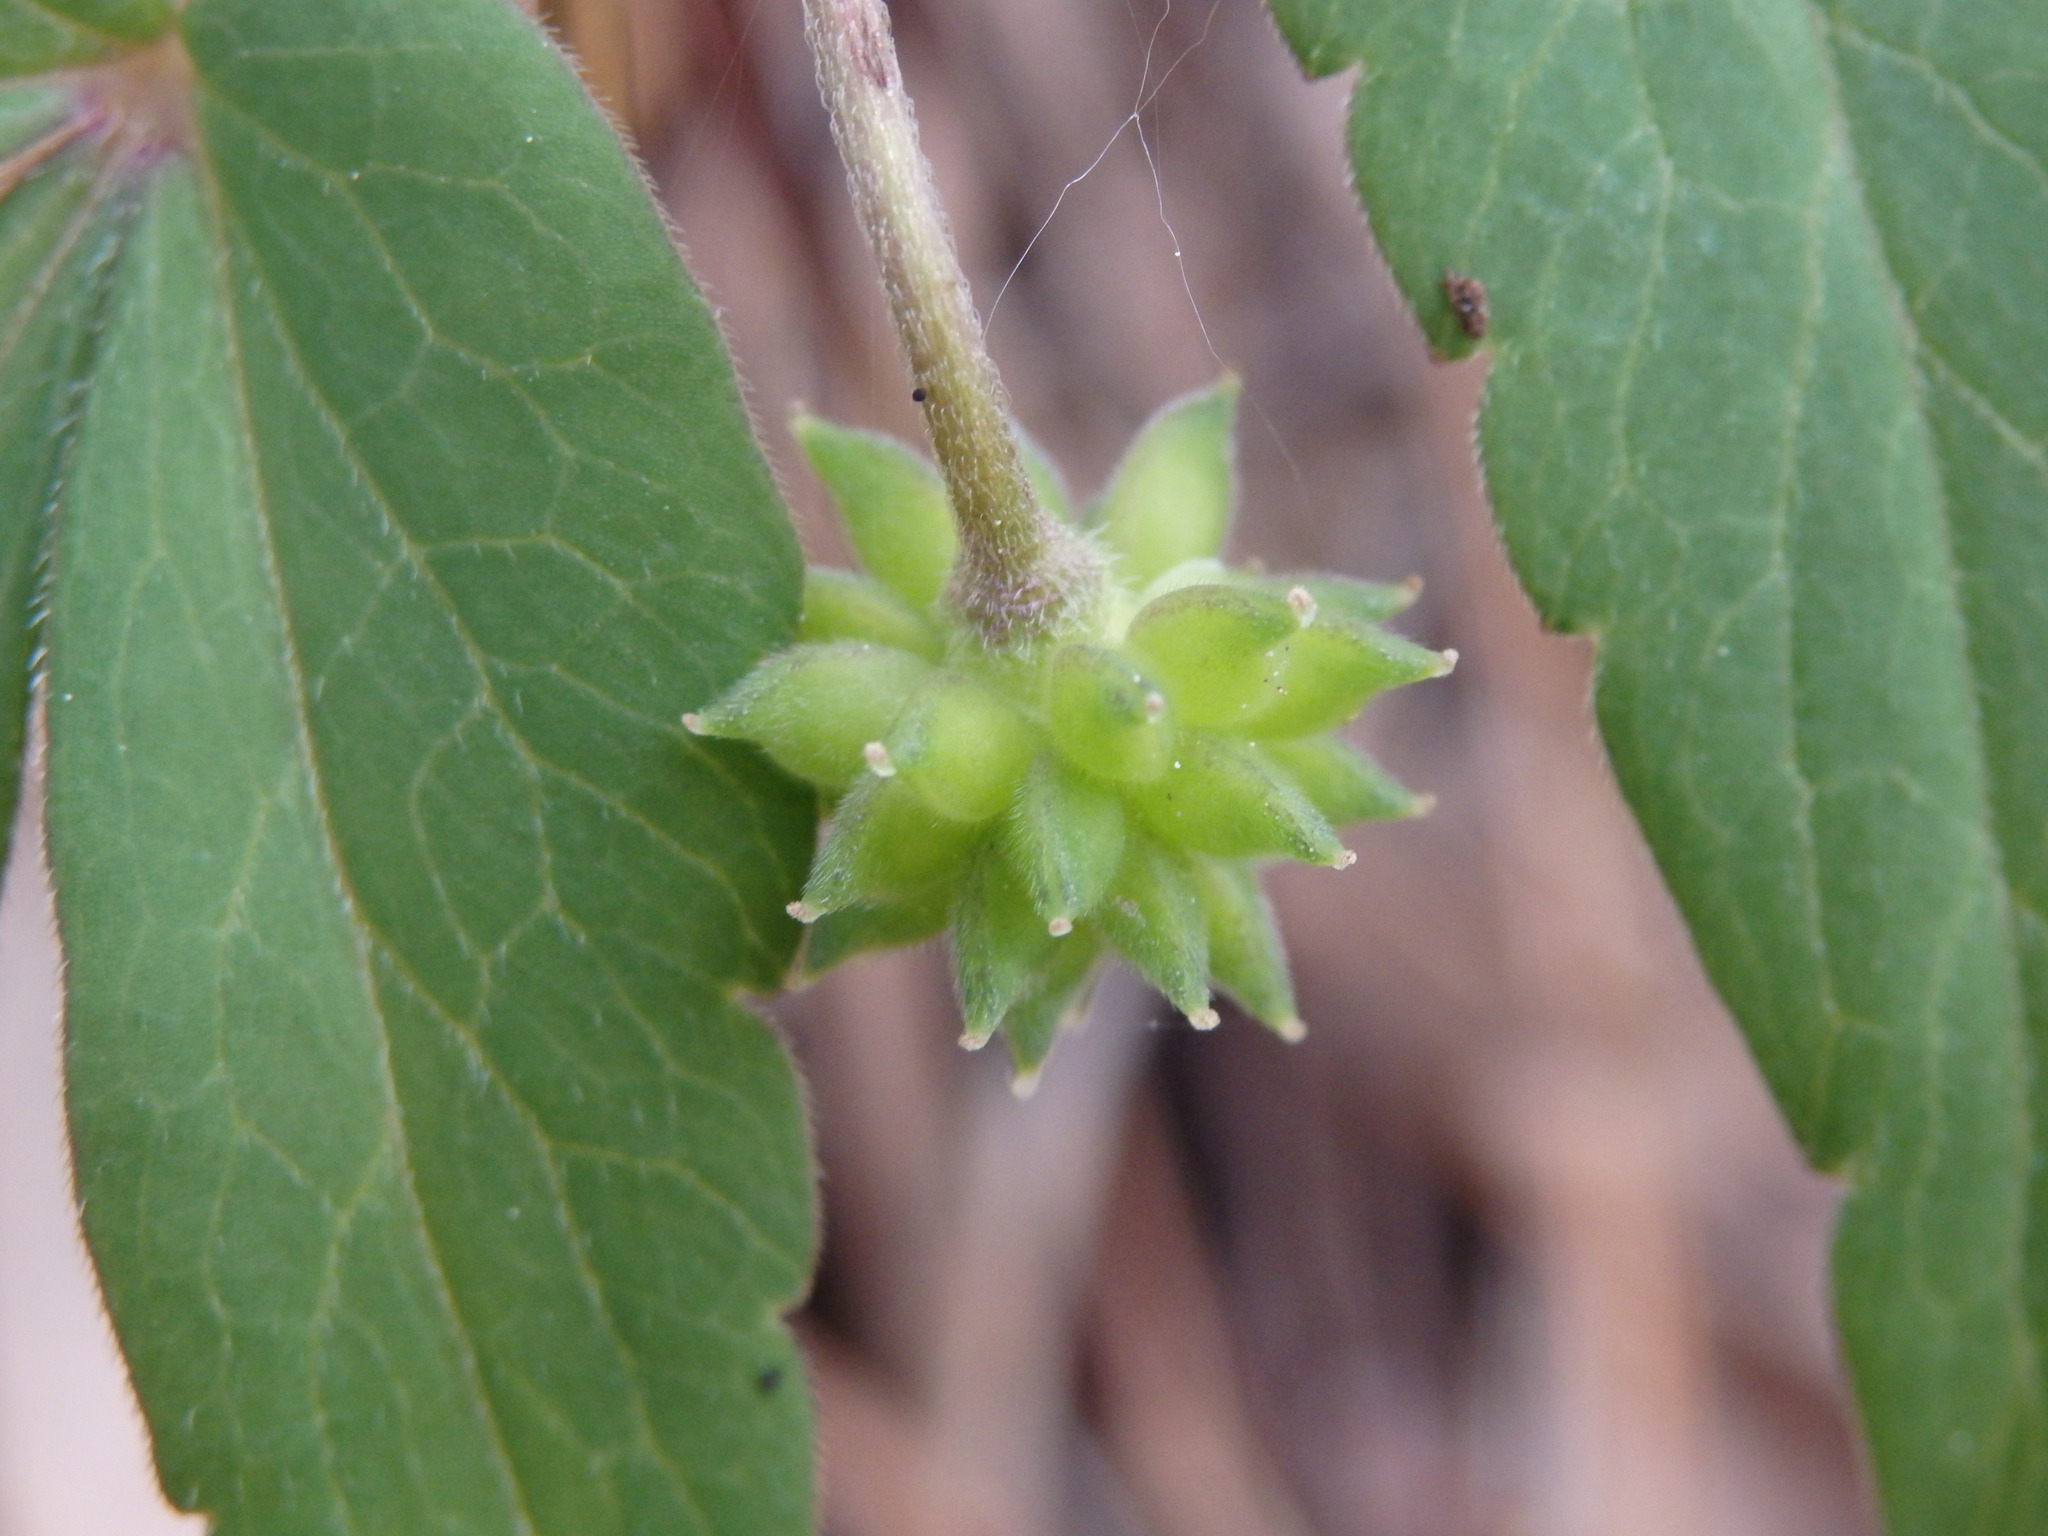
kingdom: Plantae
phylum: Tracheophyta
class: Magnoliopsida
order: Ranunculales
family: Ranunculaceae
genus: Anemone
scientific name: Anemone trifolia
